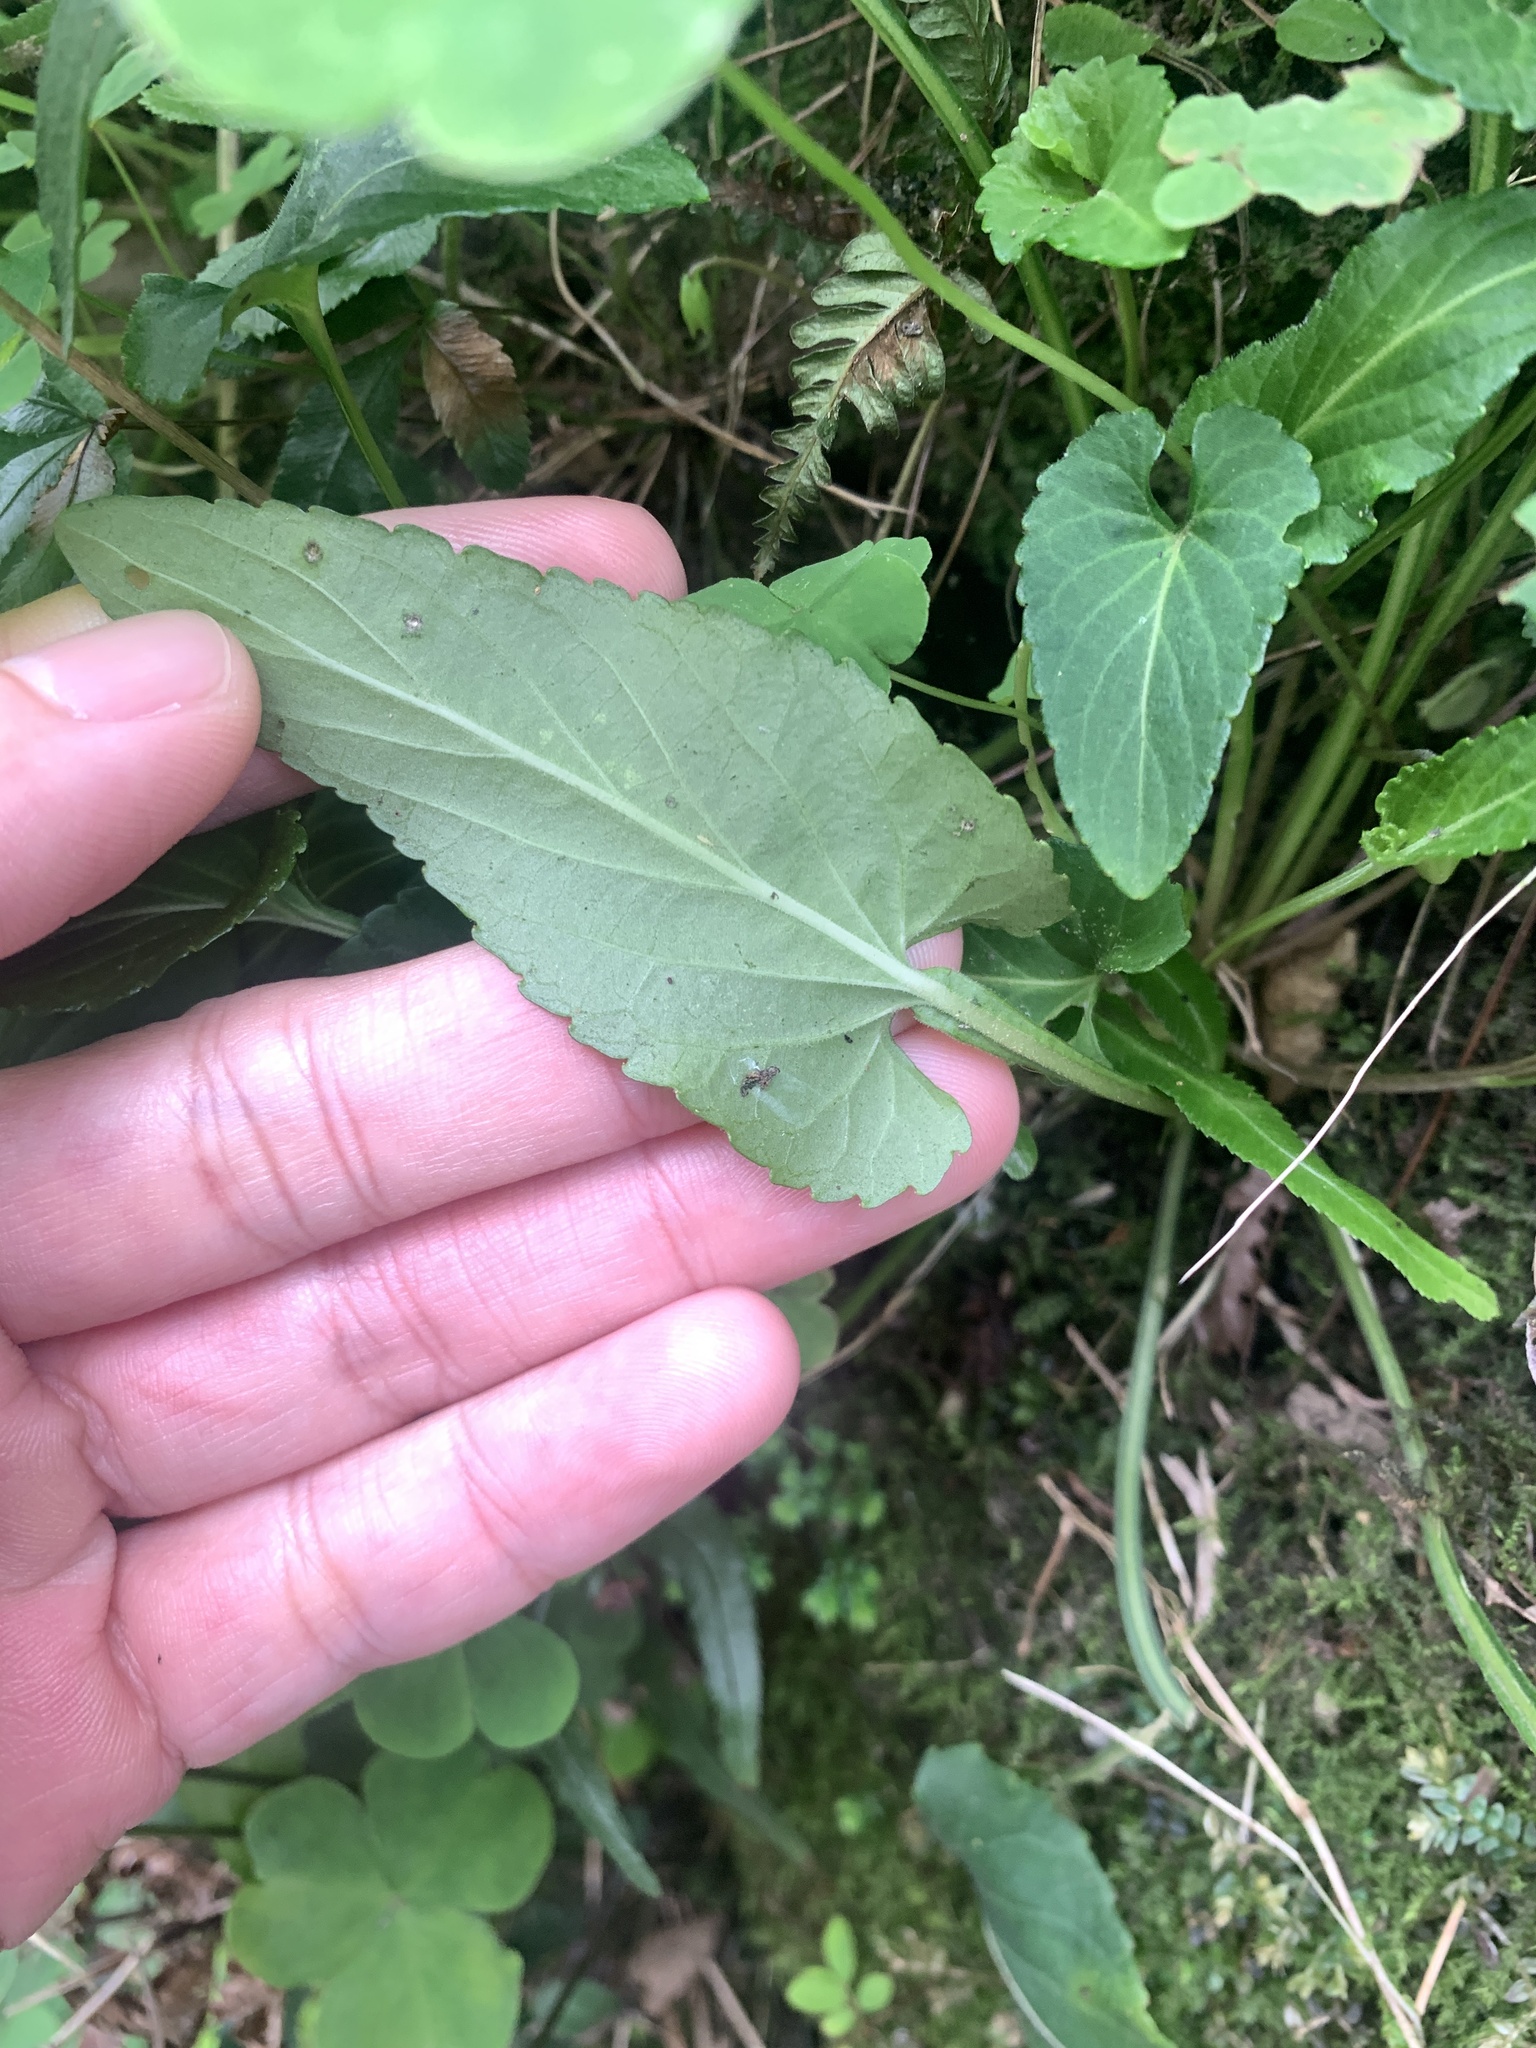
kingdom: Plantae
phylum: Tracheophyta
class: Magnoliopsida
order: Malpighiales
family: Violaceae
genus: Viola
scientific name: Viola
